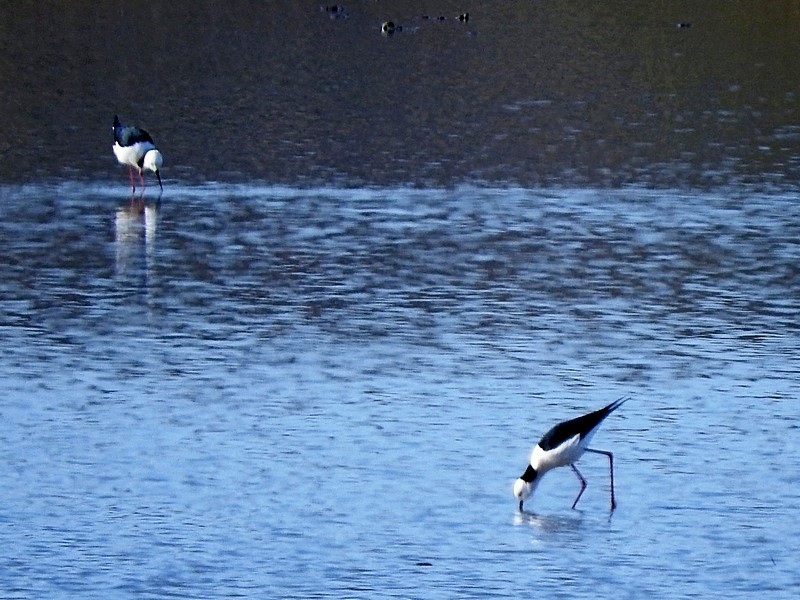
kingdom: Animalia
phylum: Chordata
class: Aves
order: Charadriiformes
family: Recurvirostridae
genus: Himantopus
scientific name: Himantopus leucocephalus
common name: White-headed stilt
